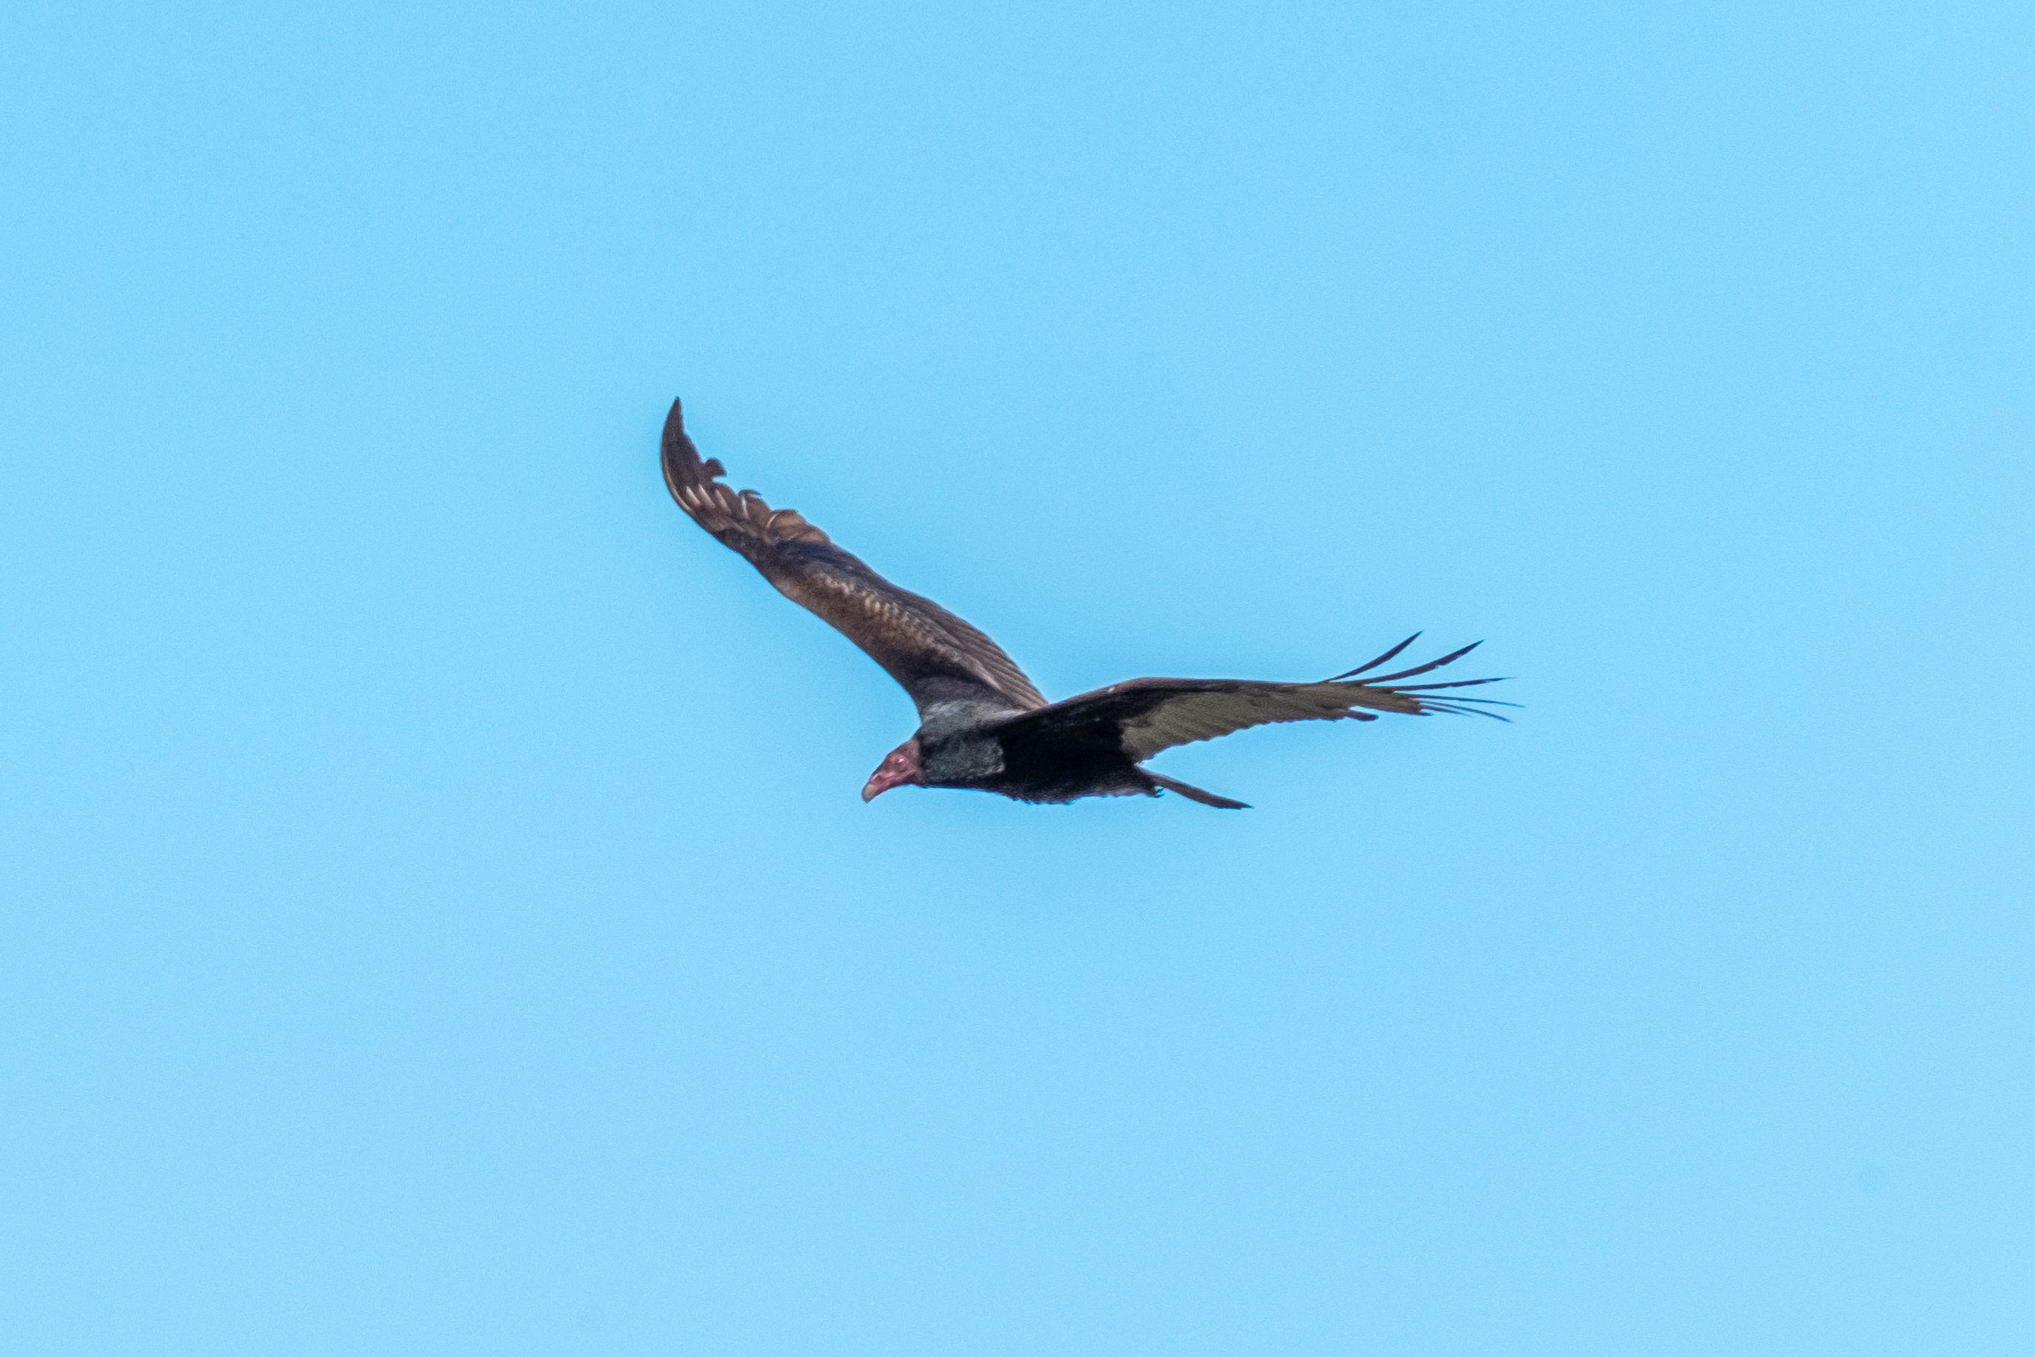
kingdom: Animalia
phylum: Chordata
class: Aves
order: Accipitriformes
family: Cathartidae
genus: Cathartes
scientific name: Cathartes aura
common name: Turkey vulture
